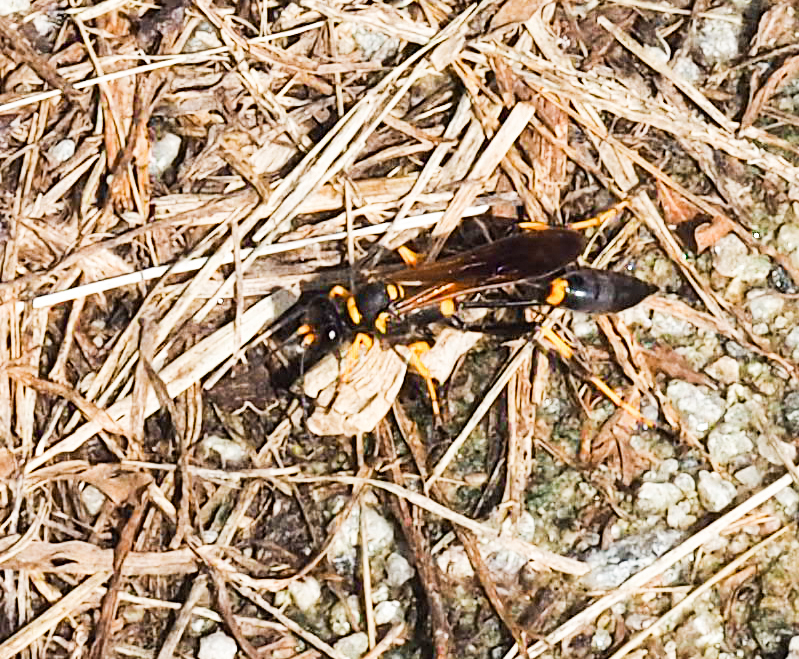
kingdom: Animalia
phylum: Arthropoda
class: Insecta
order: Hymenoptera
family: Sphecidae
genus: Sceliphron
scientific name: Sceliphron caementarium
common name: Mud dauber
